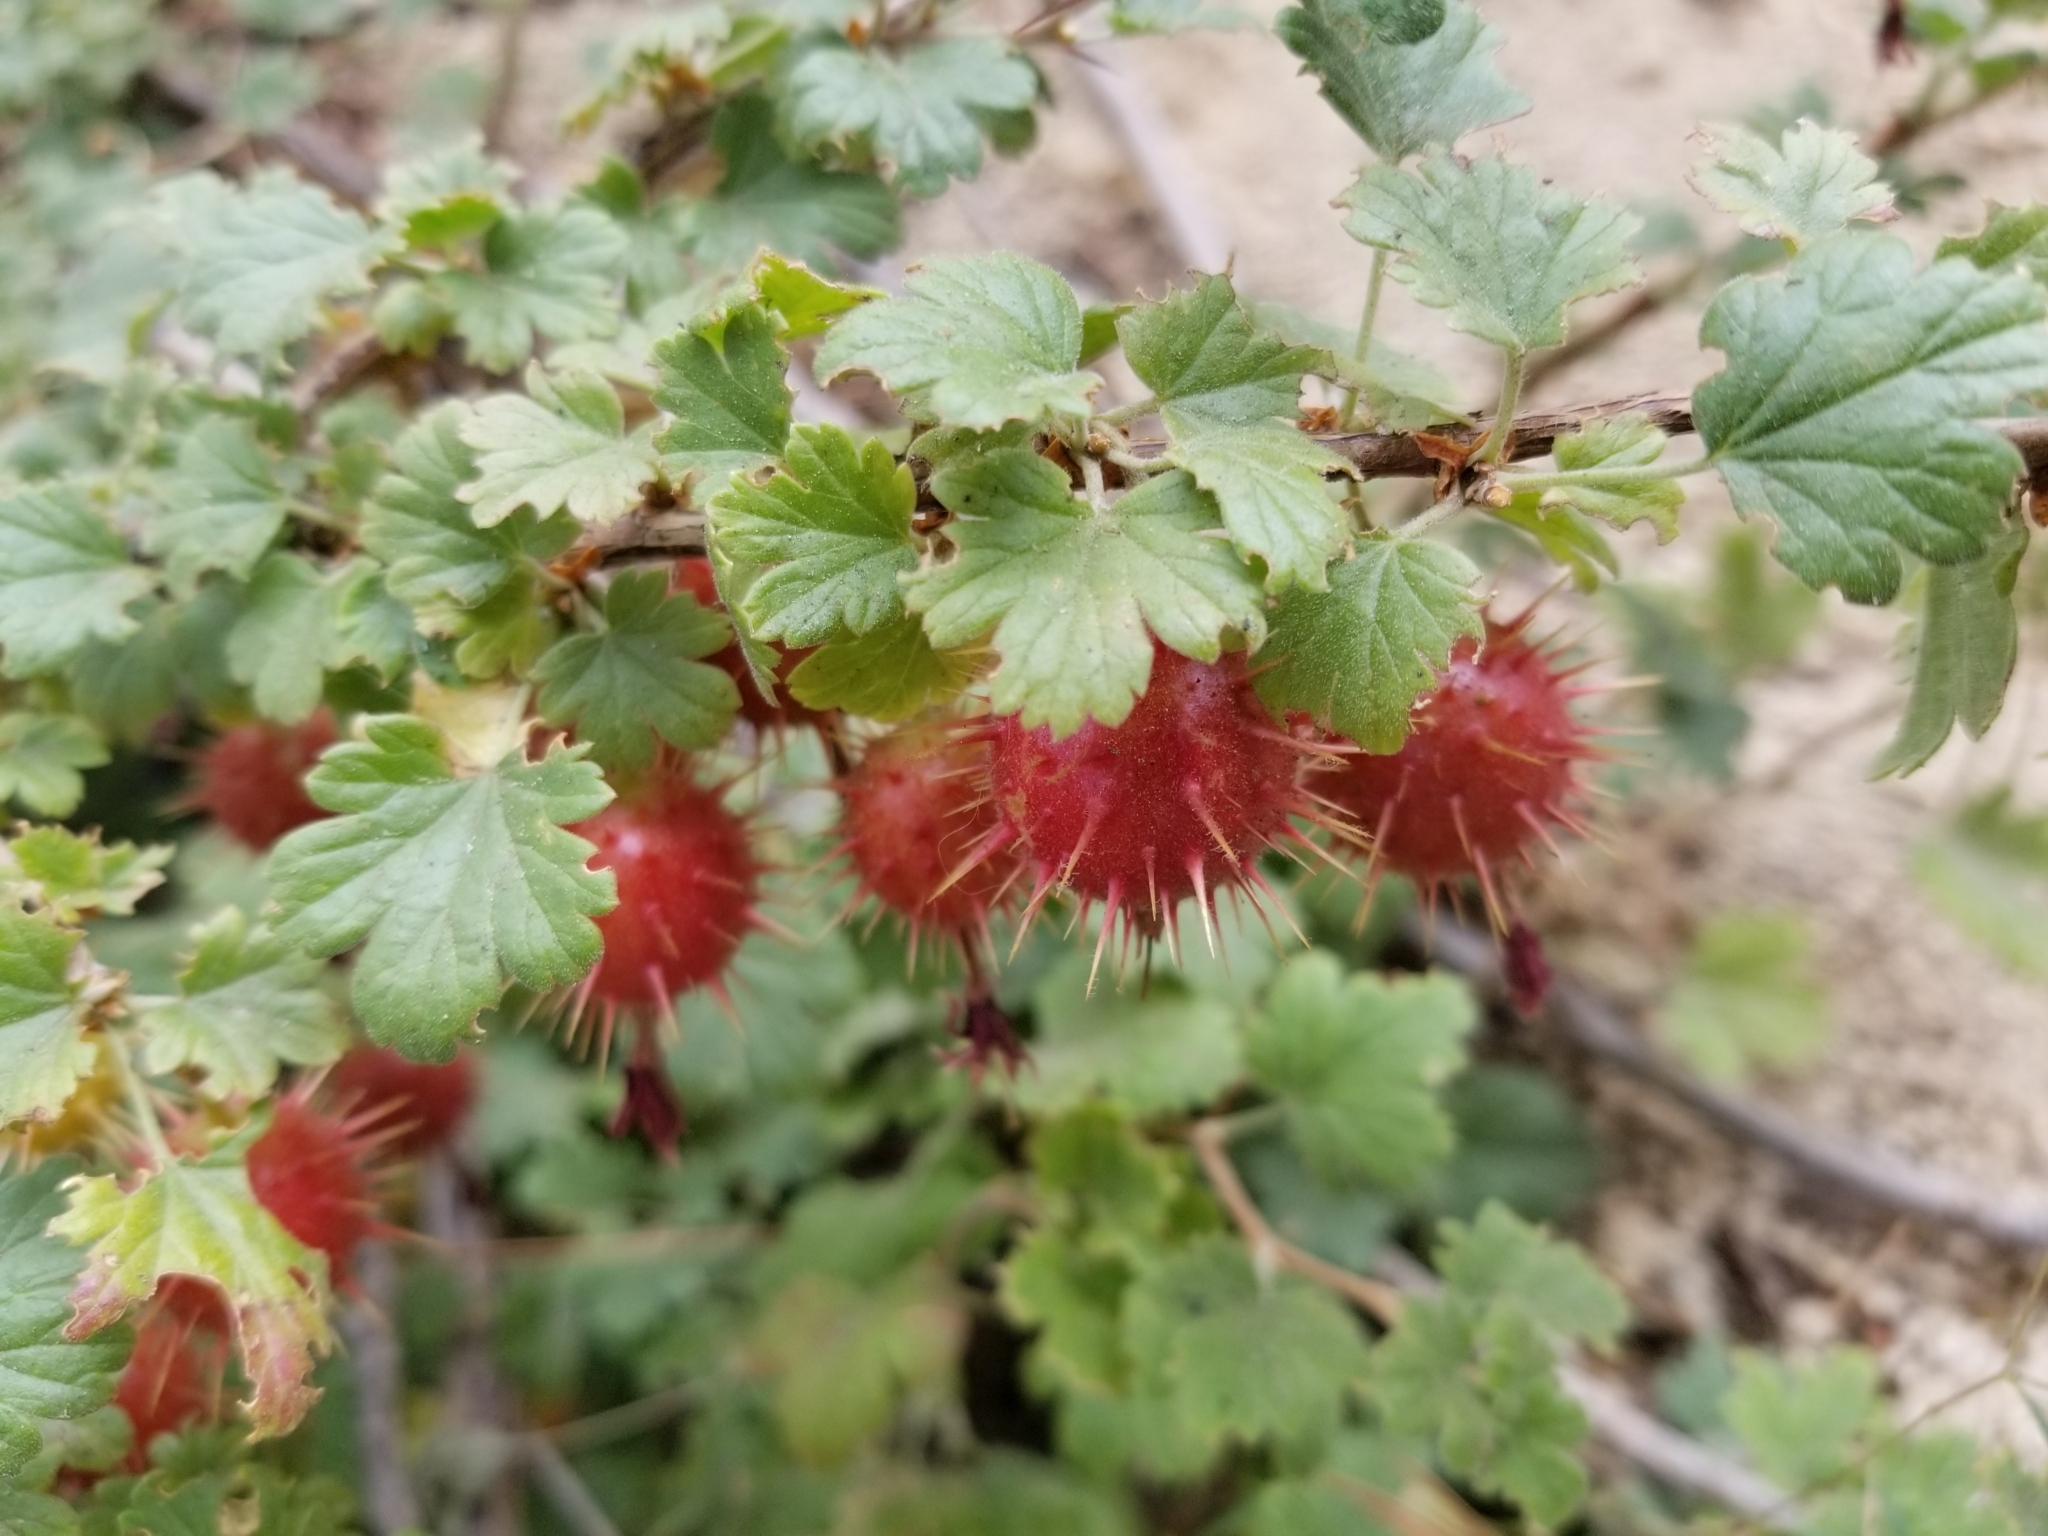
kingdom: Plantae
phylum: Tracheophyta
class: Magnoliopsida
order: Saxifragales
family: Grossulariaceae
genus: Ribes
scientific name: Ribes roezlii
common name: Sierra gooseberry
